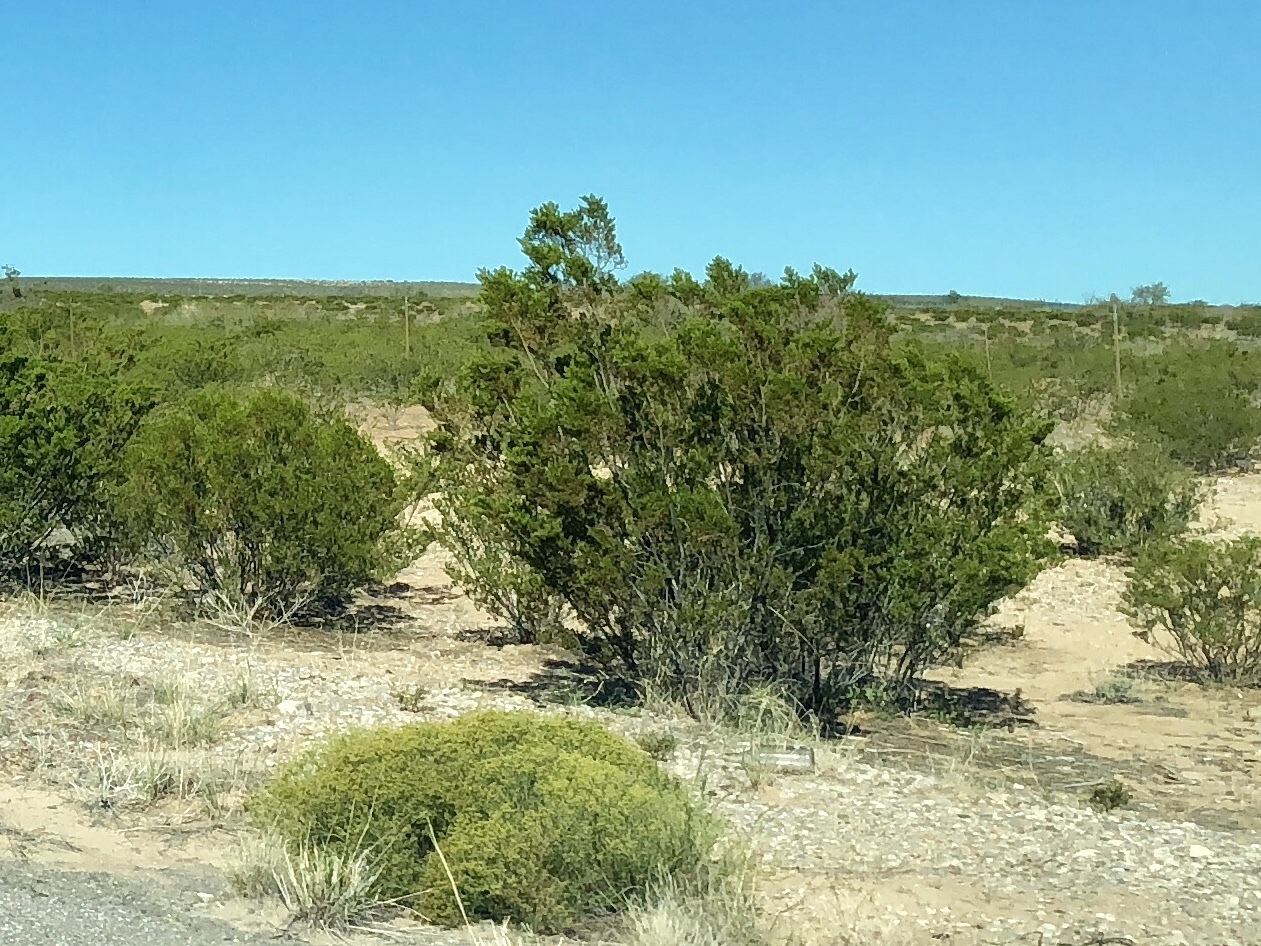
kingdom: Plantae
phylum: Tracheophyta
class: Magnoliopsida
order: Zygophyllales
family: Zygophyllaceae
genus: Larrea
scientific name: Larrea tridentata
